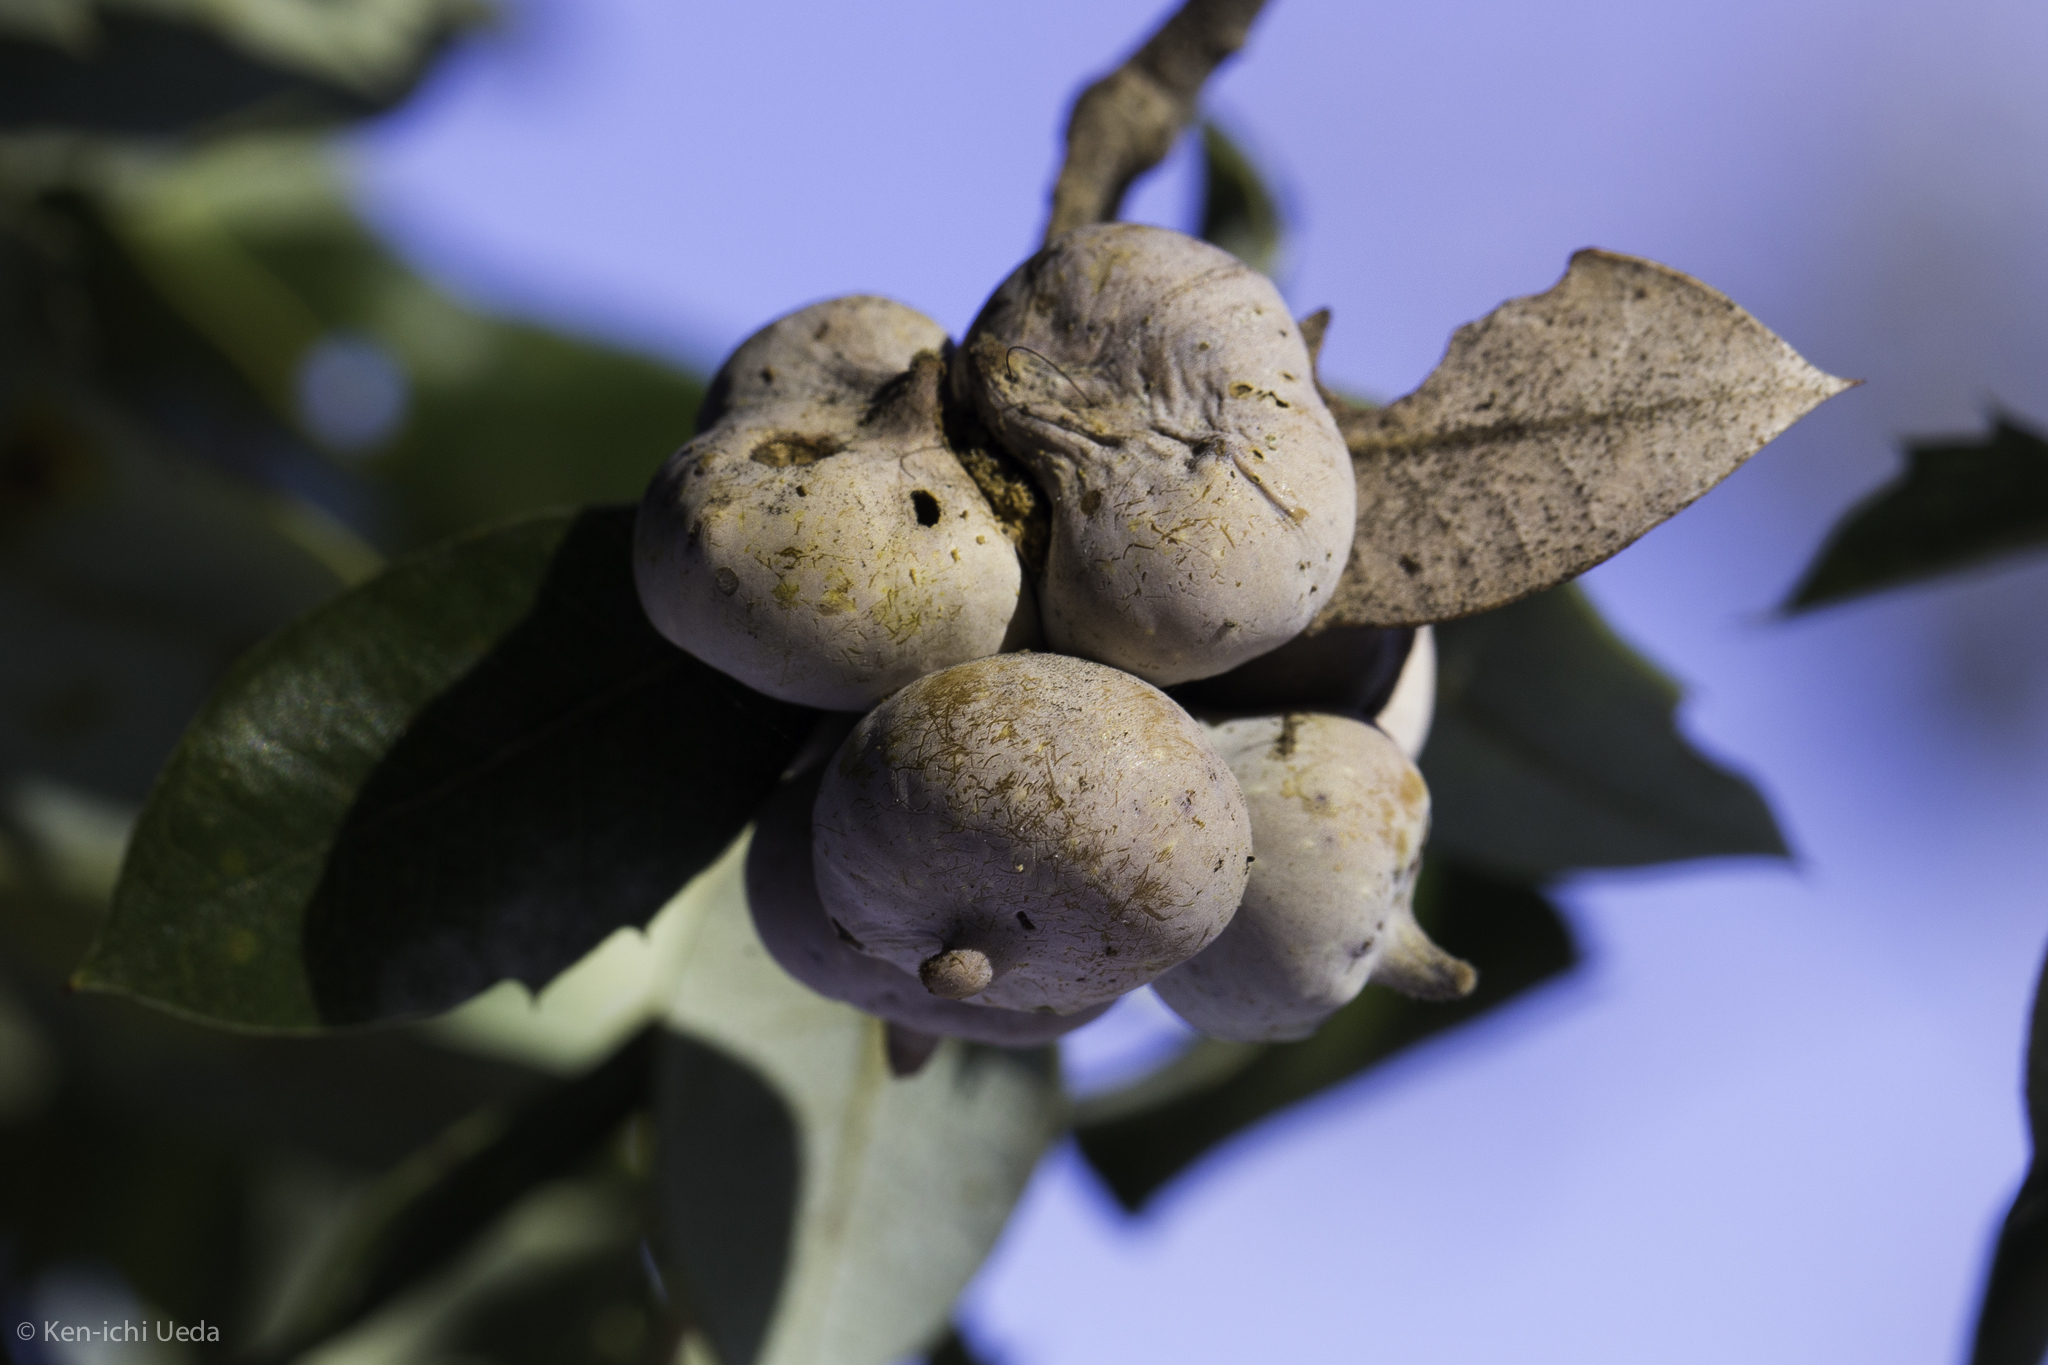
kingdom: Animalia
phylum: Arthropoda
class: Insecta
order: Hymenoptera
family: Cynipidae
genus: Heteroecus
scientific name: Heteroecus
